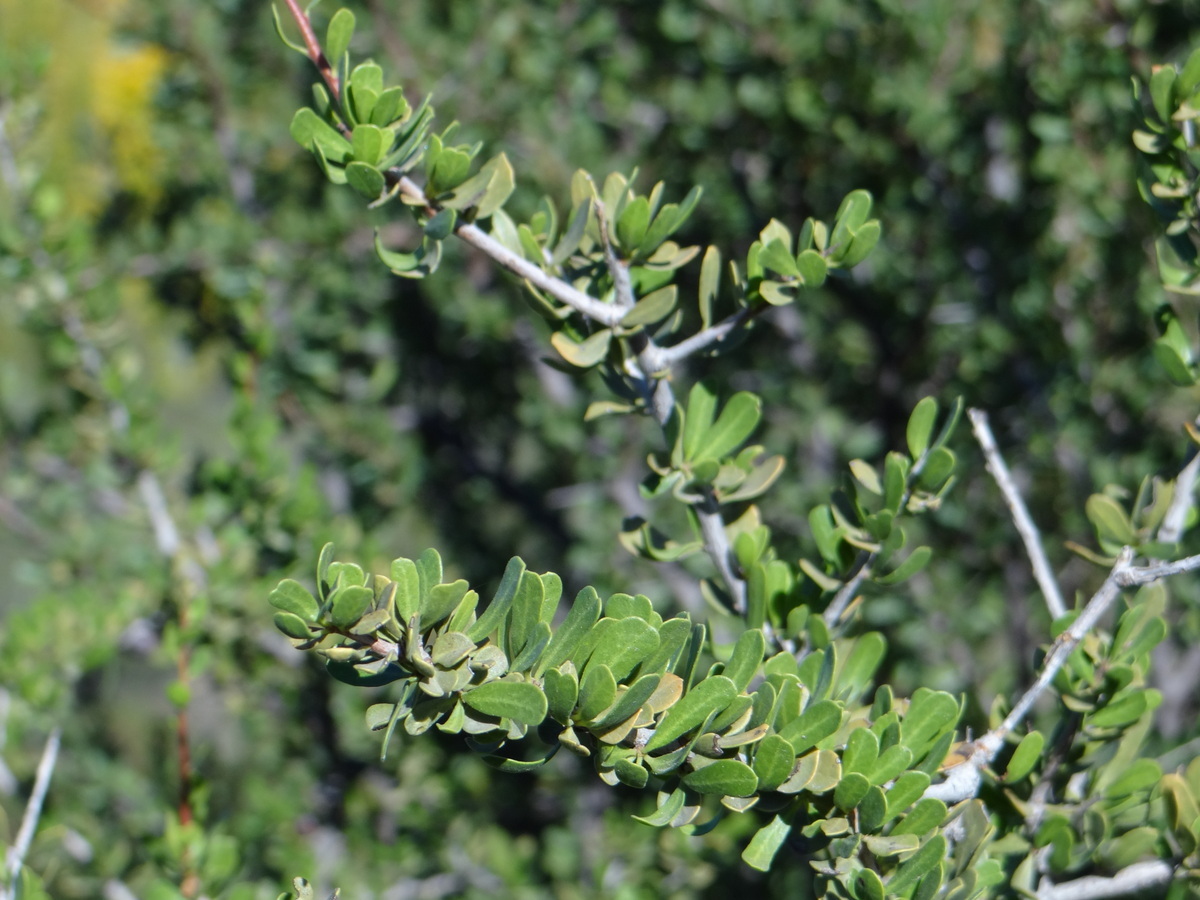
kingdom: Plantae
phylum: Tracheophyta
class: Magnoliopsida
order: Sapindales
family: Anacardiaceae
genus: Schinus
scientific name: Schinus fasciculata
